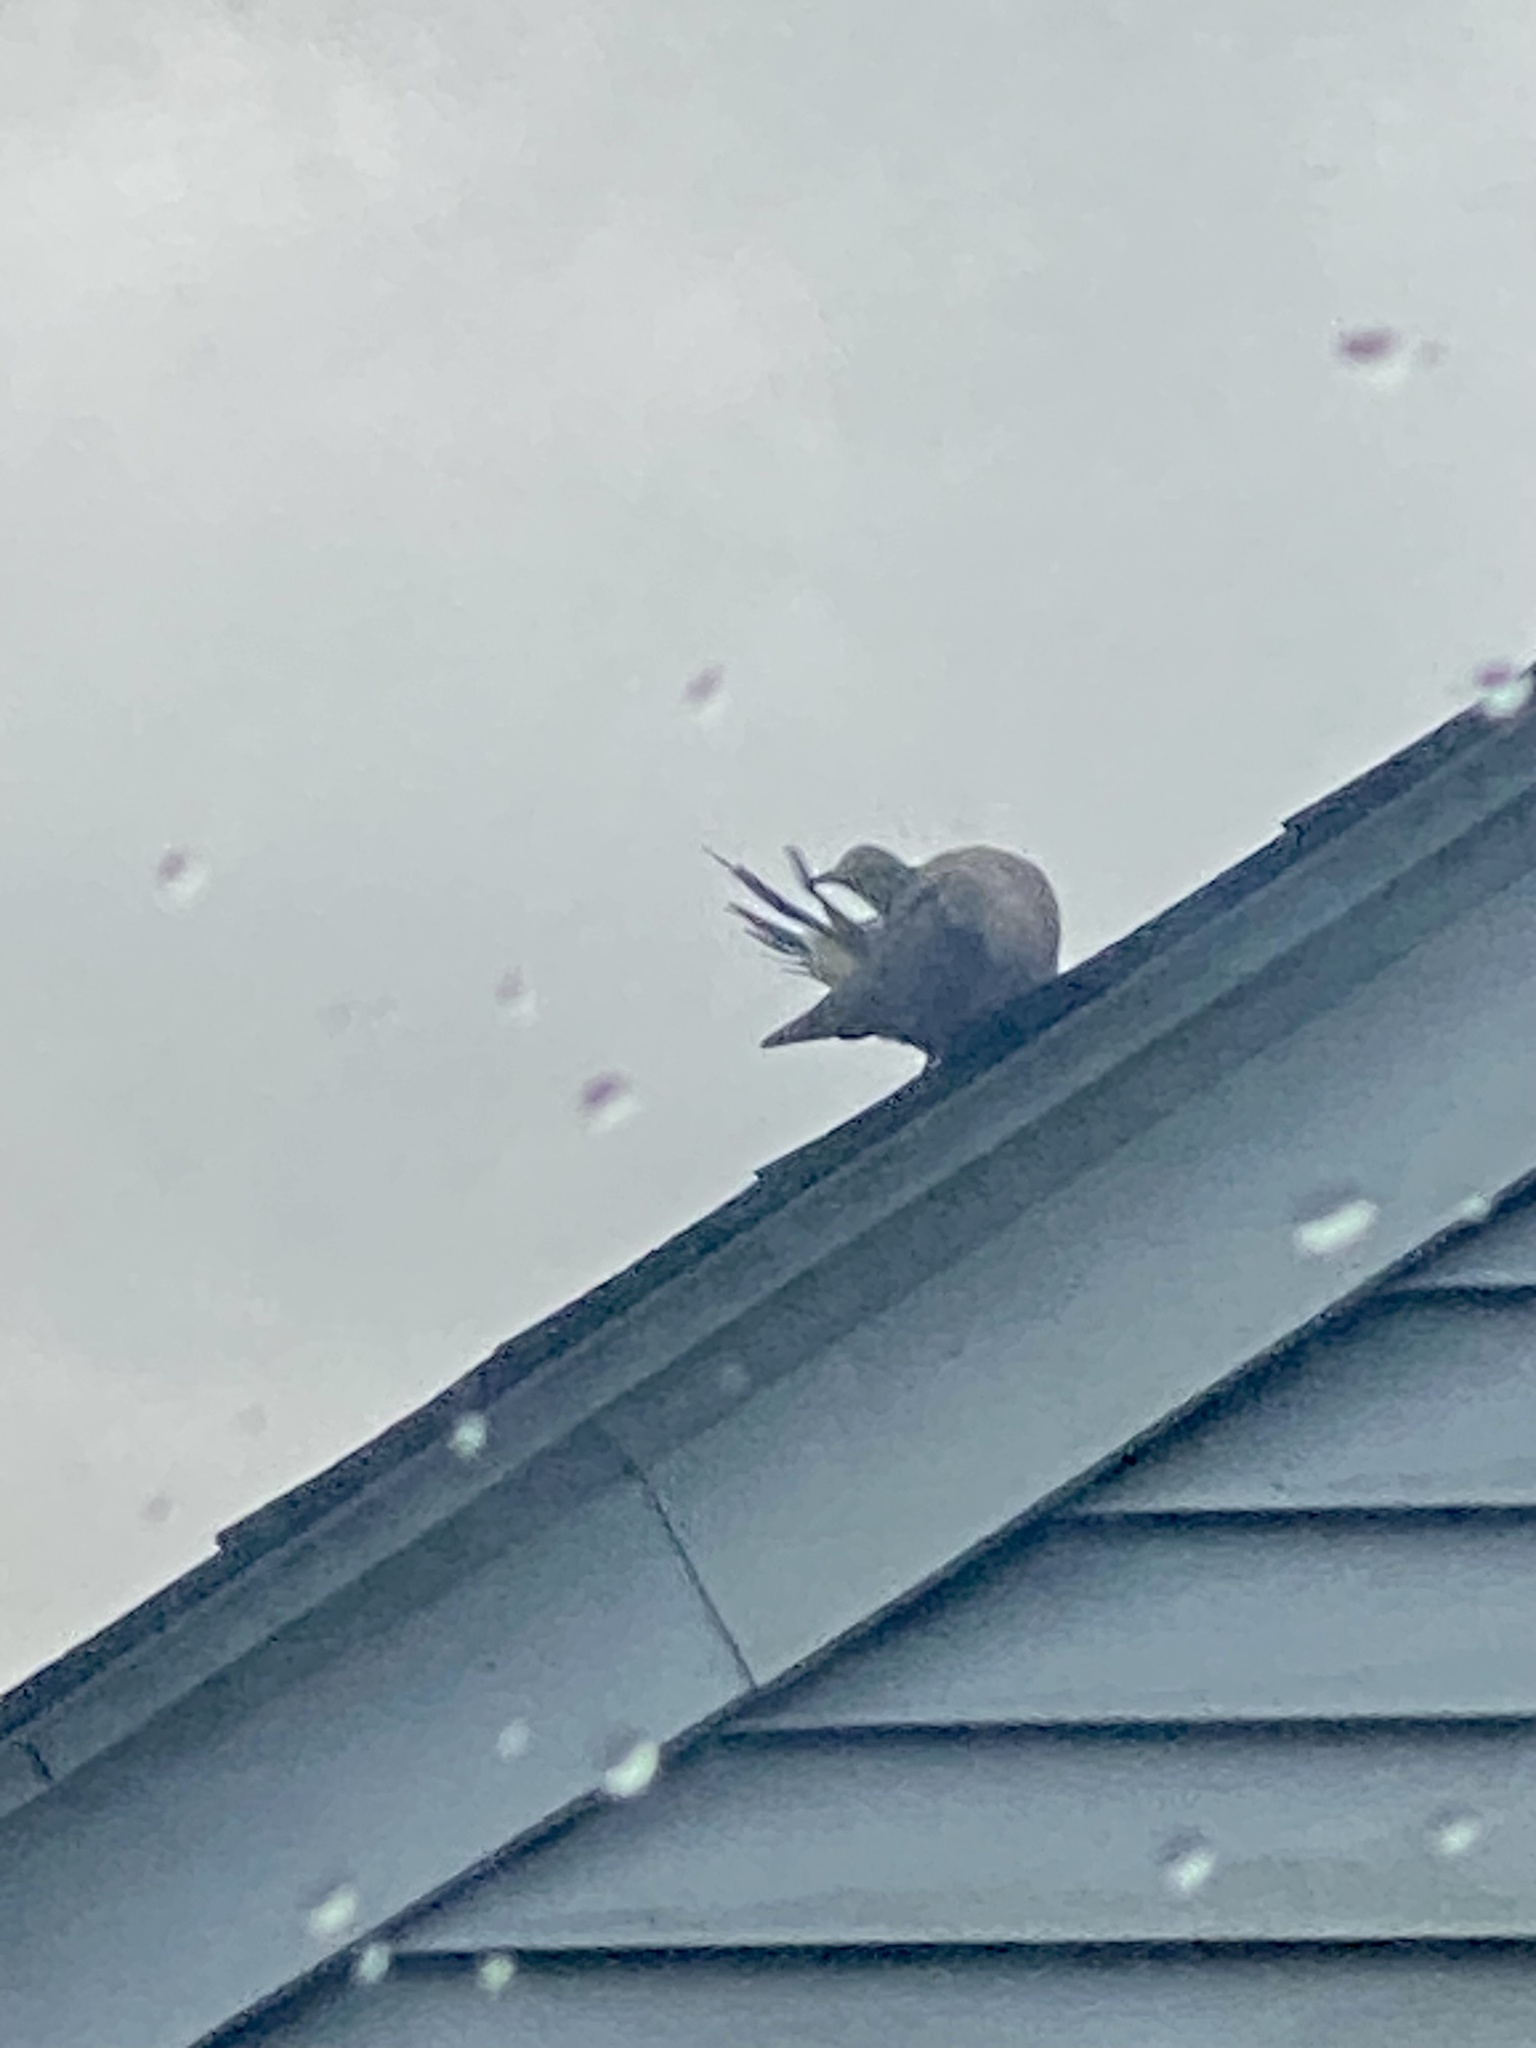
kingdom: Animalia
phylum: Chordata
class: Aves
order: Columbiformes
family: Columbidae
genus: Zenaida
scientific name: Zenaida macroura
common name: Mourning dove
